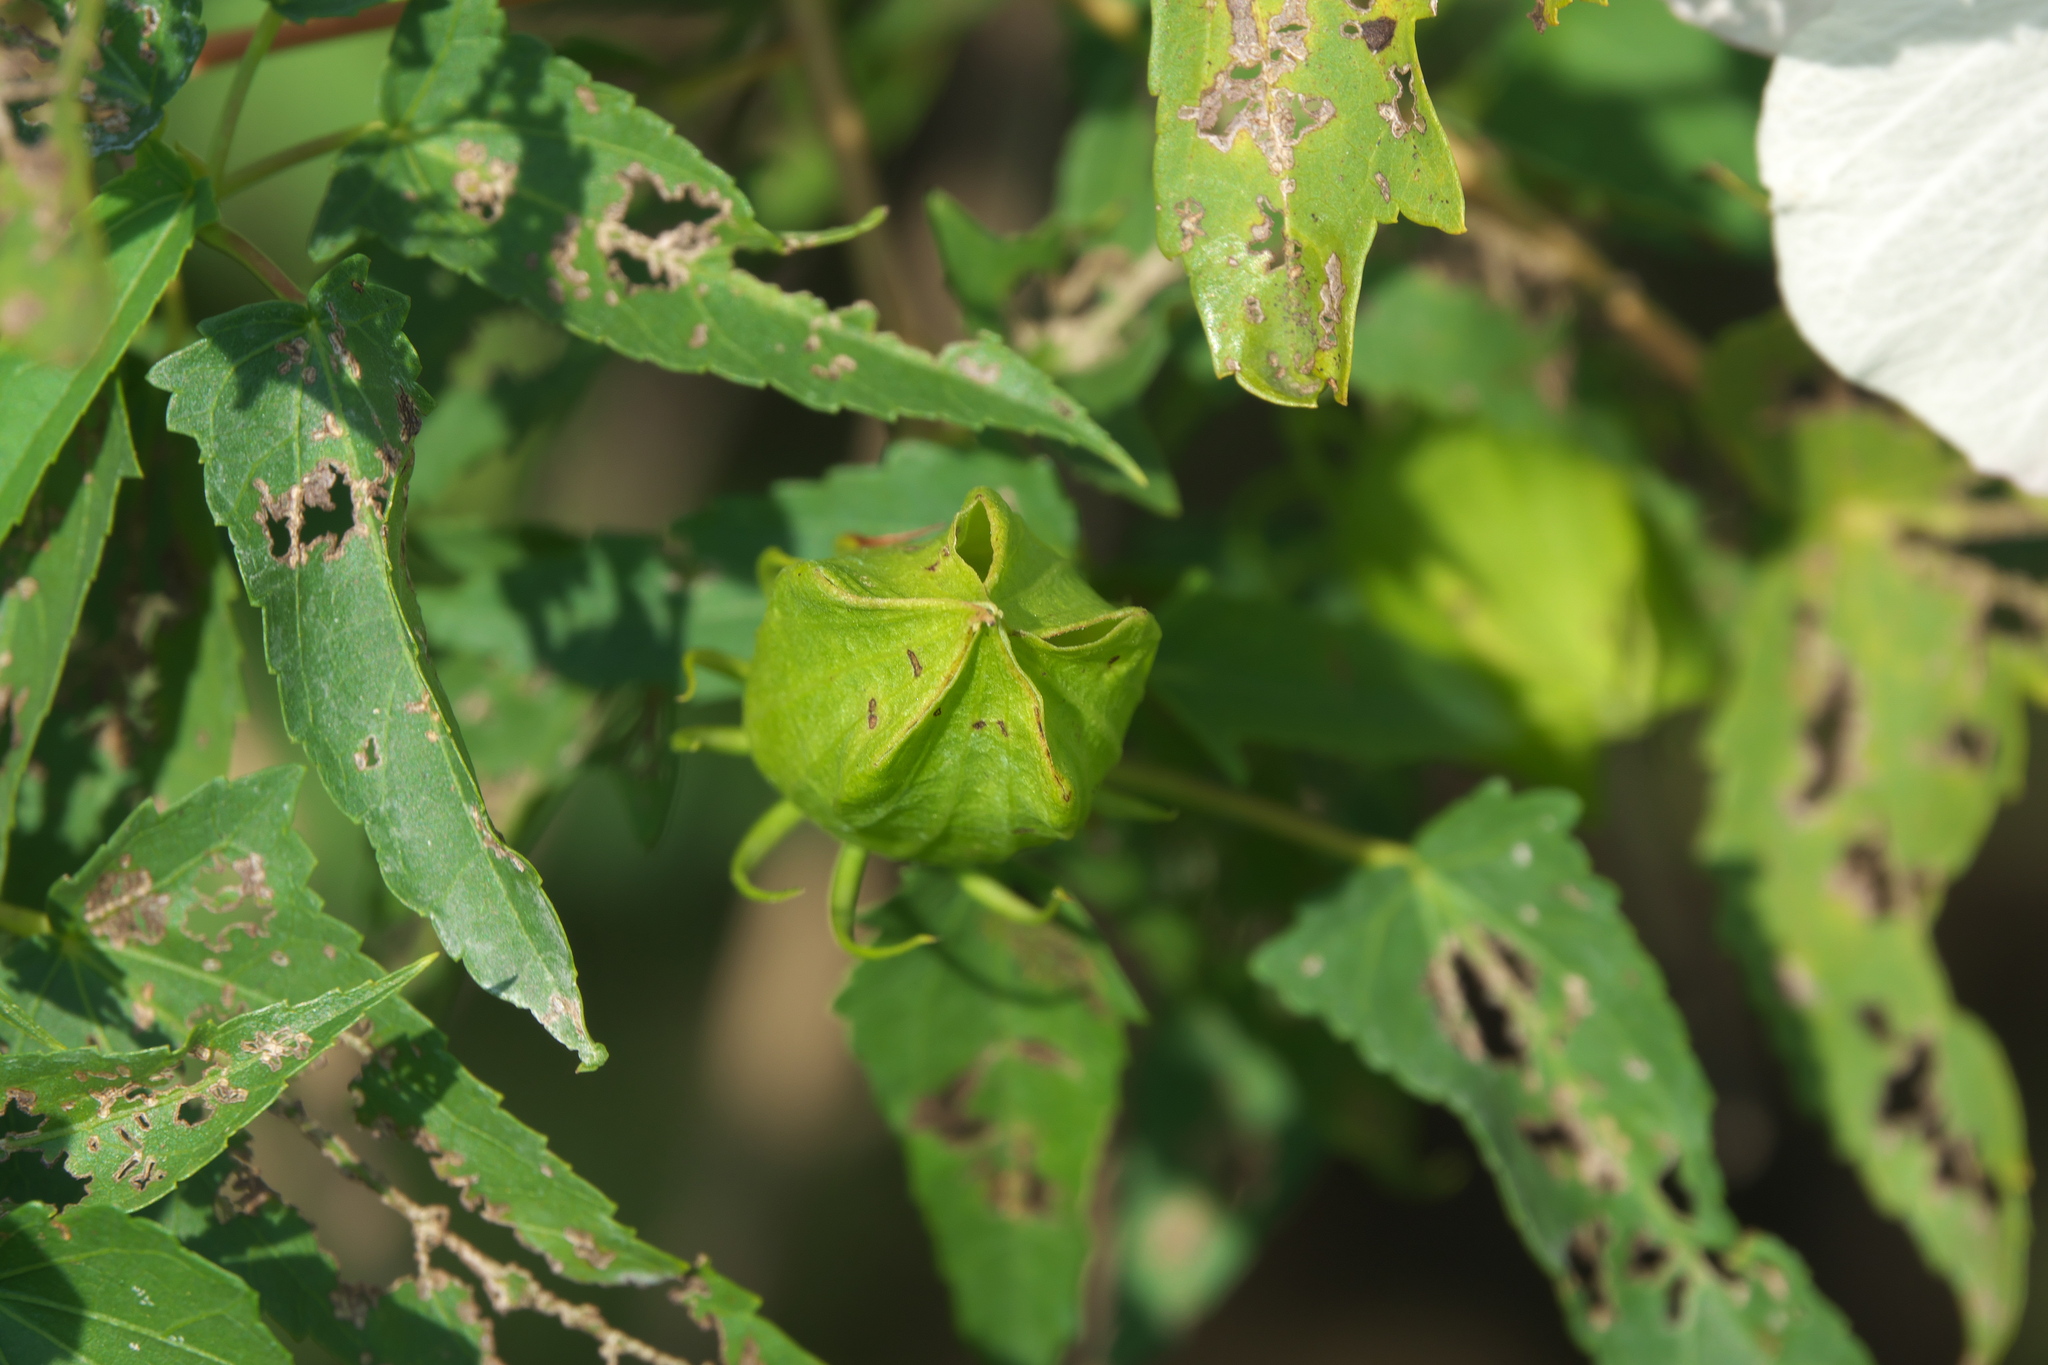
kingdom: Plantae
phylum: Tracheophyta
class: Magnoliopsida
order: Malvales
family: Malvaceae
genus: Hibiscus
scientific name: Hibiscus laevis
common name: Scarlet rose-mallow
